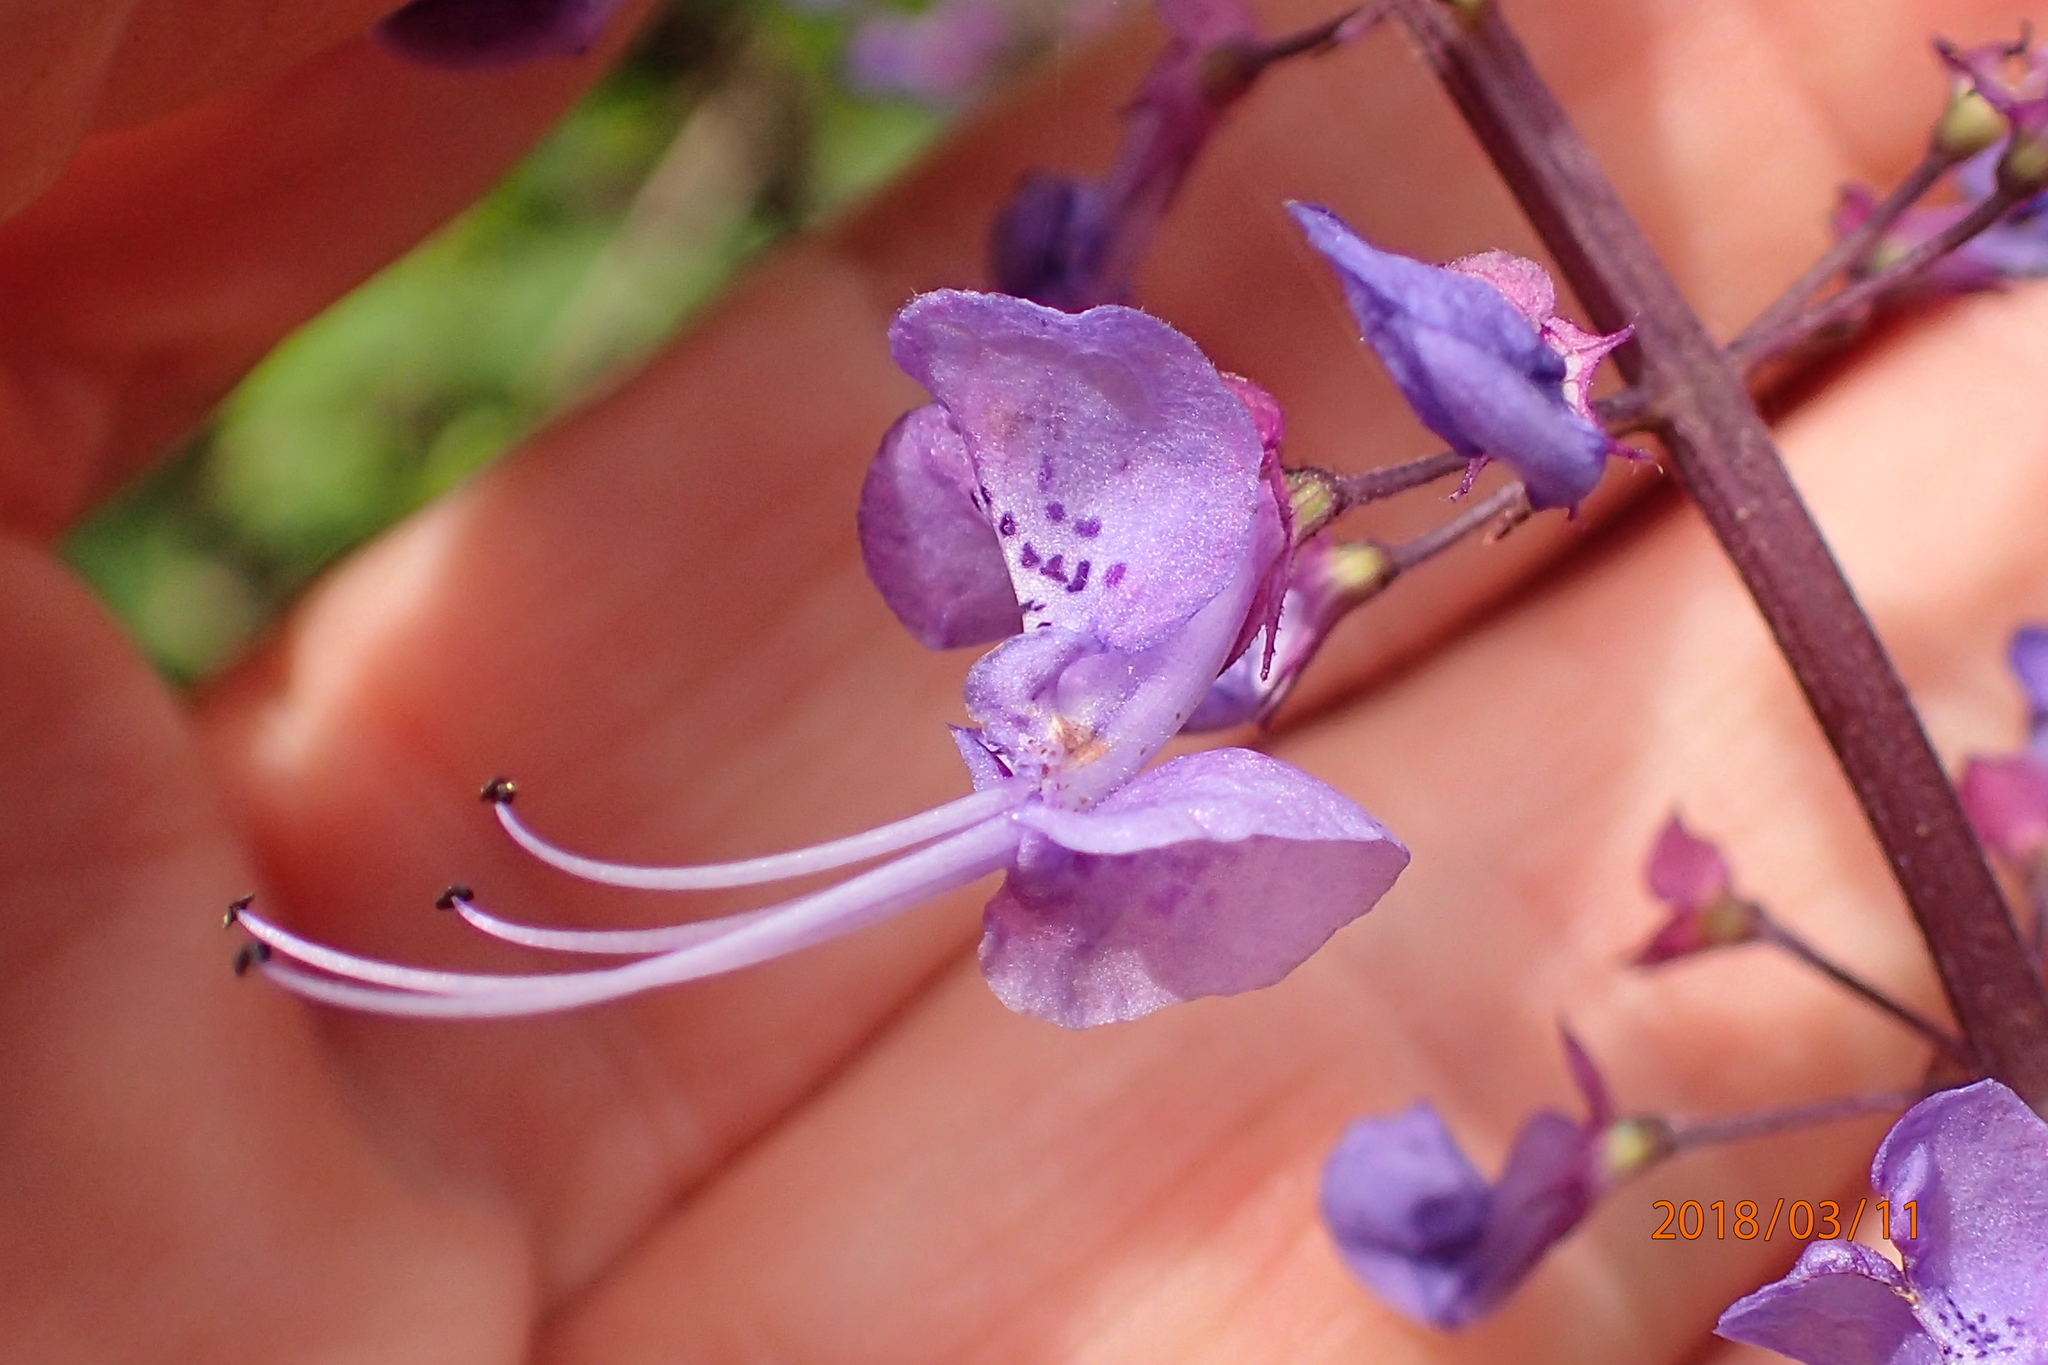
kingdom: Plantae
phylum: Tracheophyta
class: Magnoliopsida
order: Lamiales
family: Lamiaceae
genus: Plectranthus
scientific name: Plectranthus fruticosus
